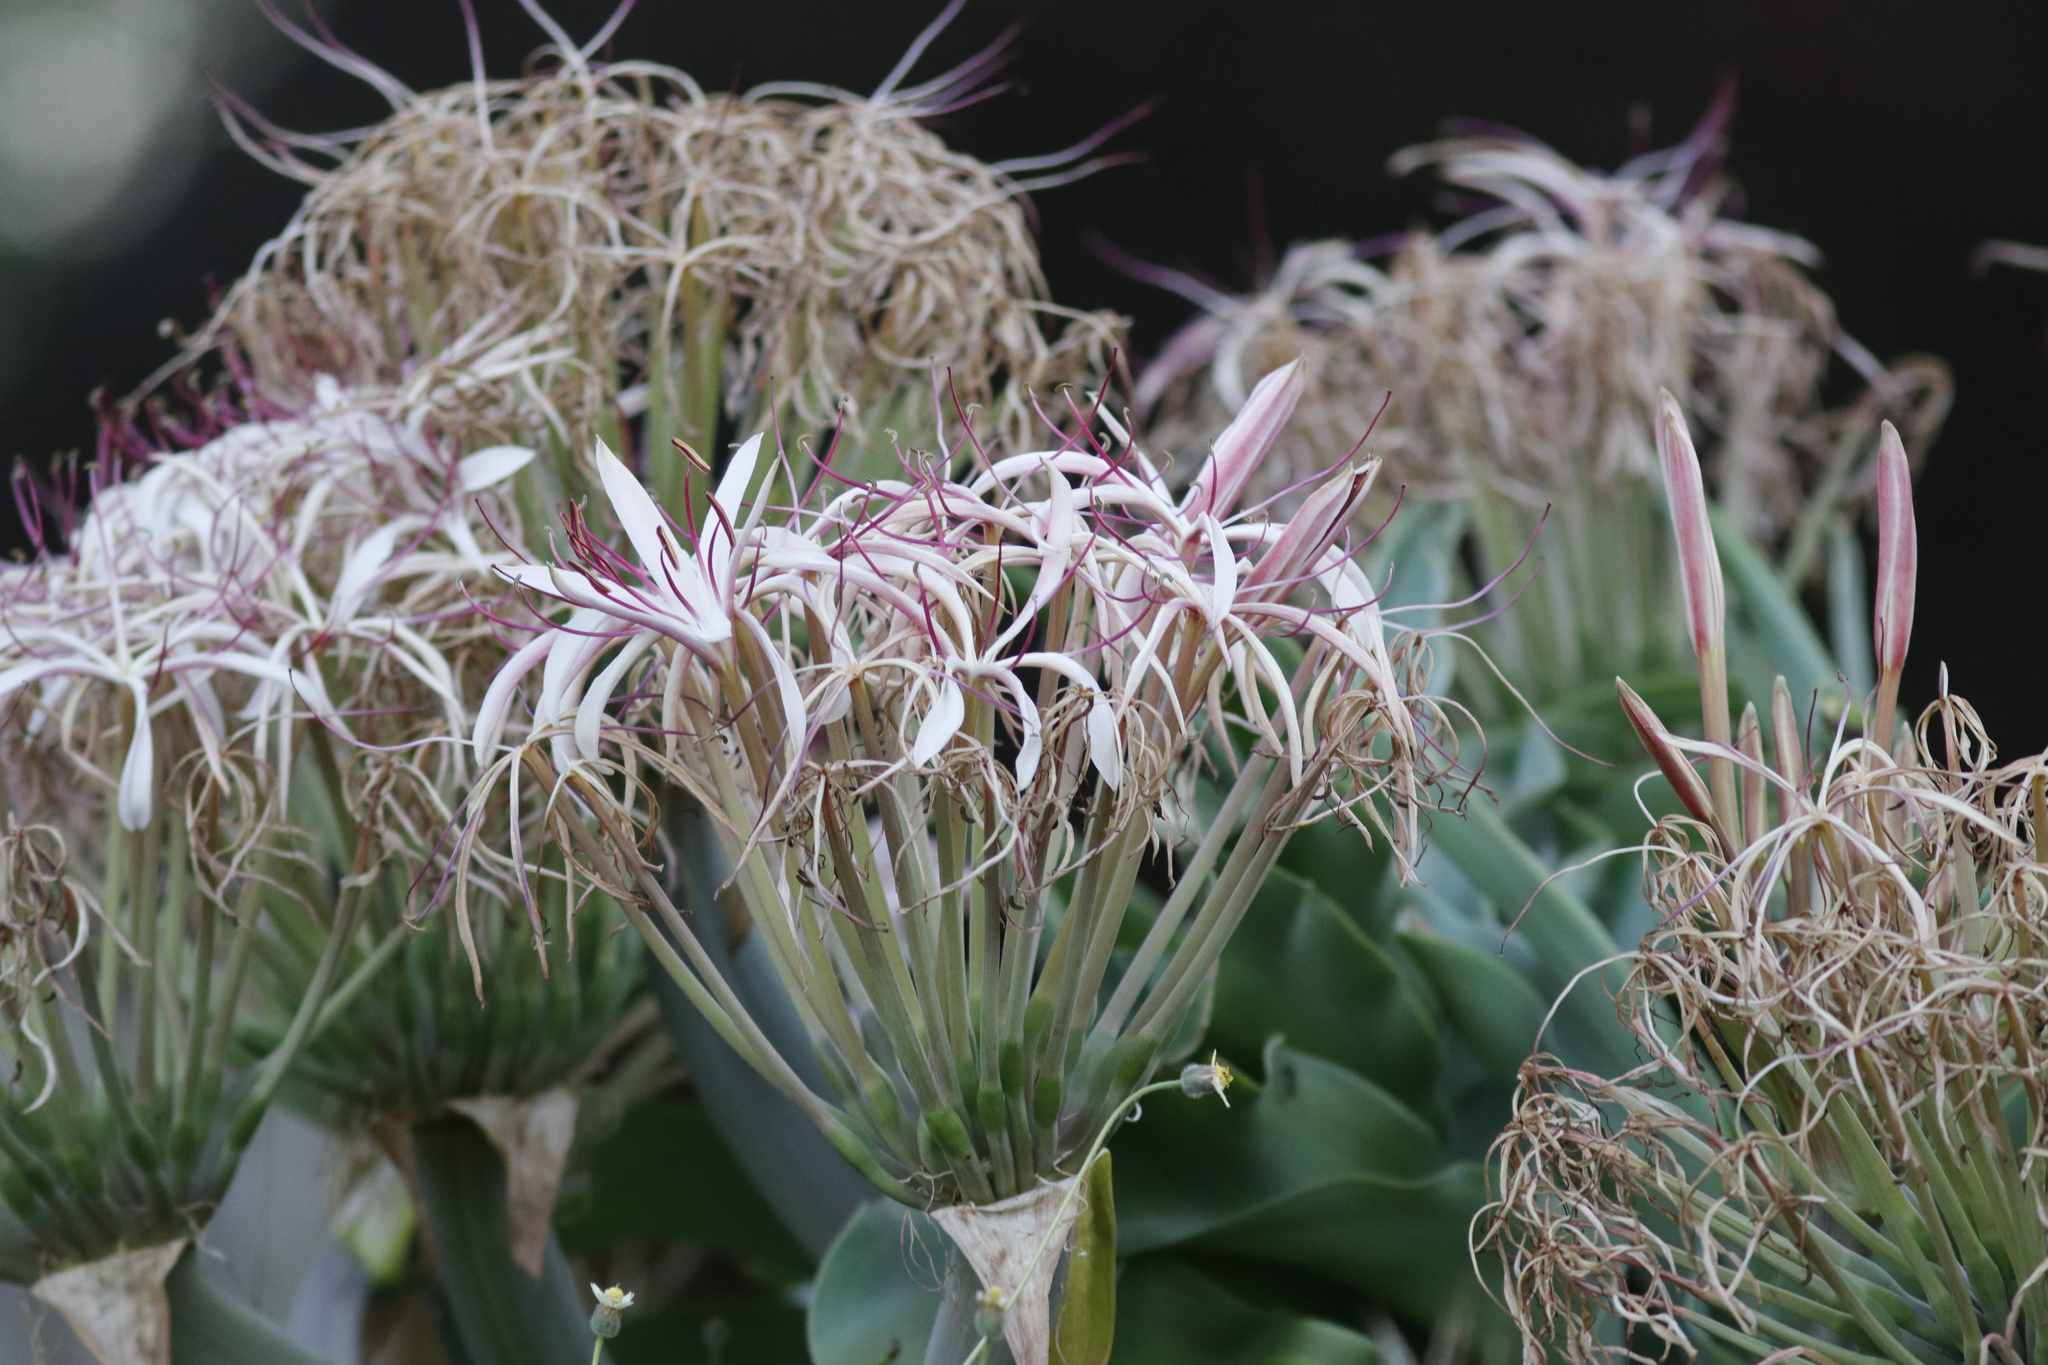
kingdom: Plantae
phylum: Tracheophyta
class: Liliopsida
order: Asparagales
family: Amaryllidaceae
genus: Crinum
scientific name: Crinum buphanoides
